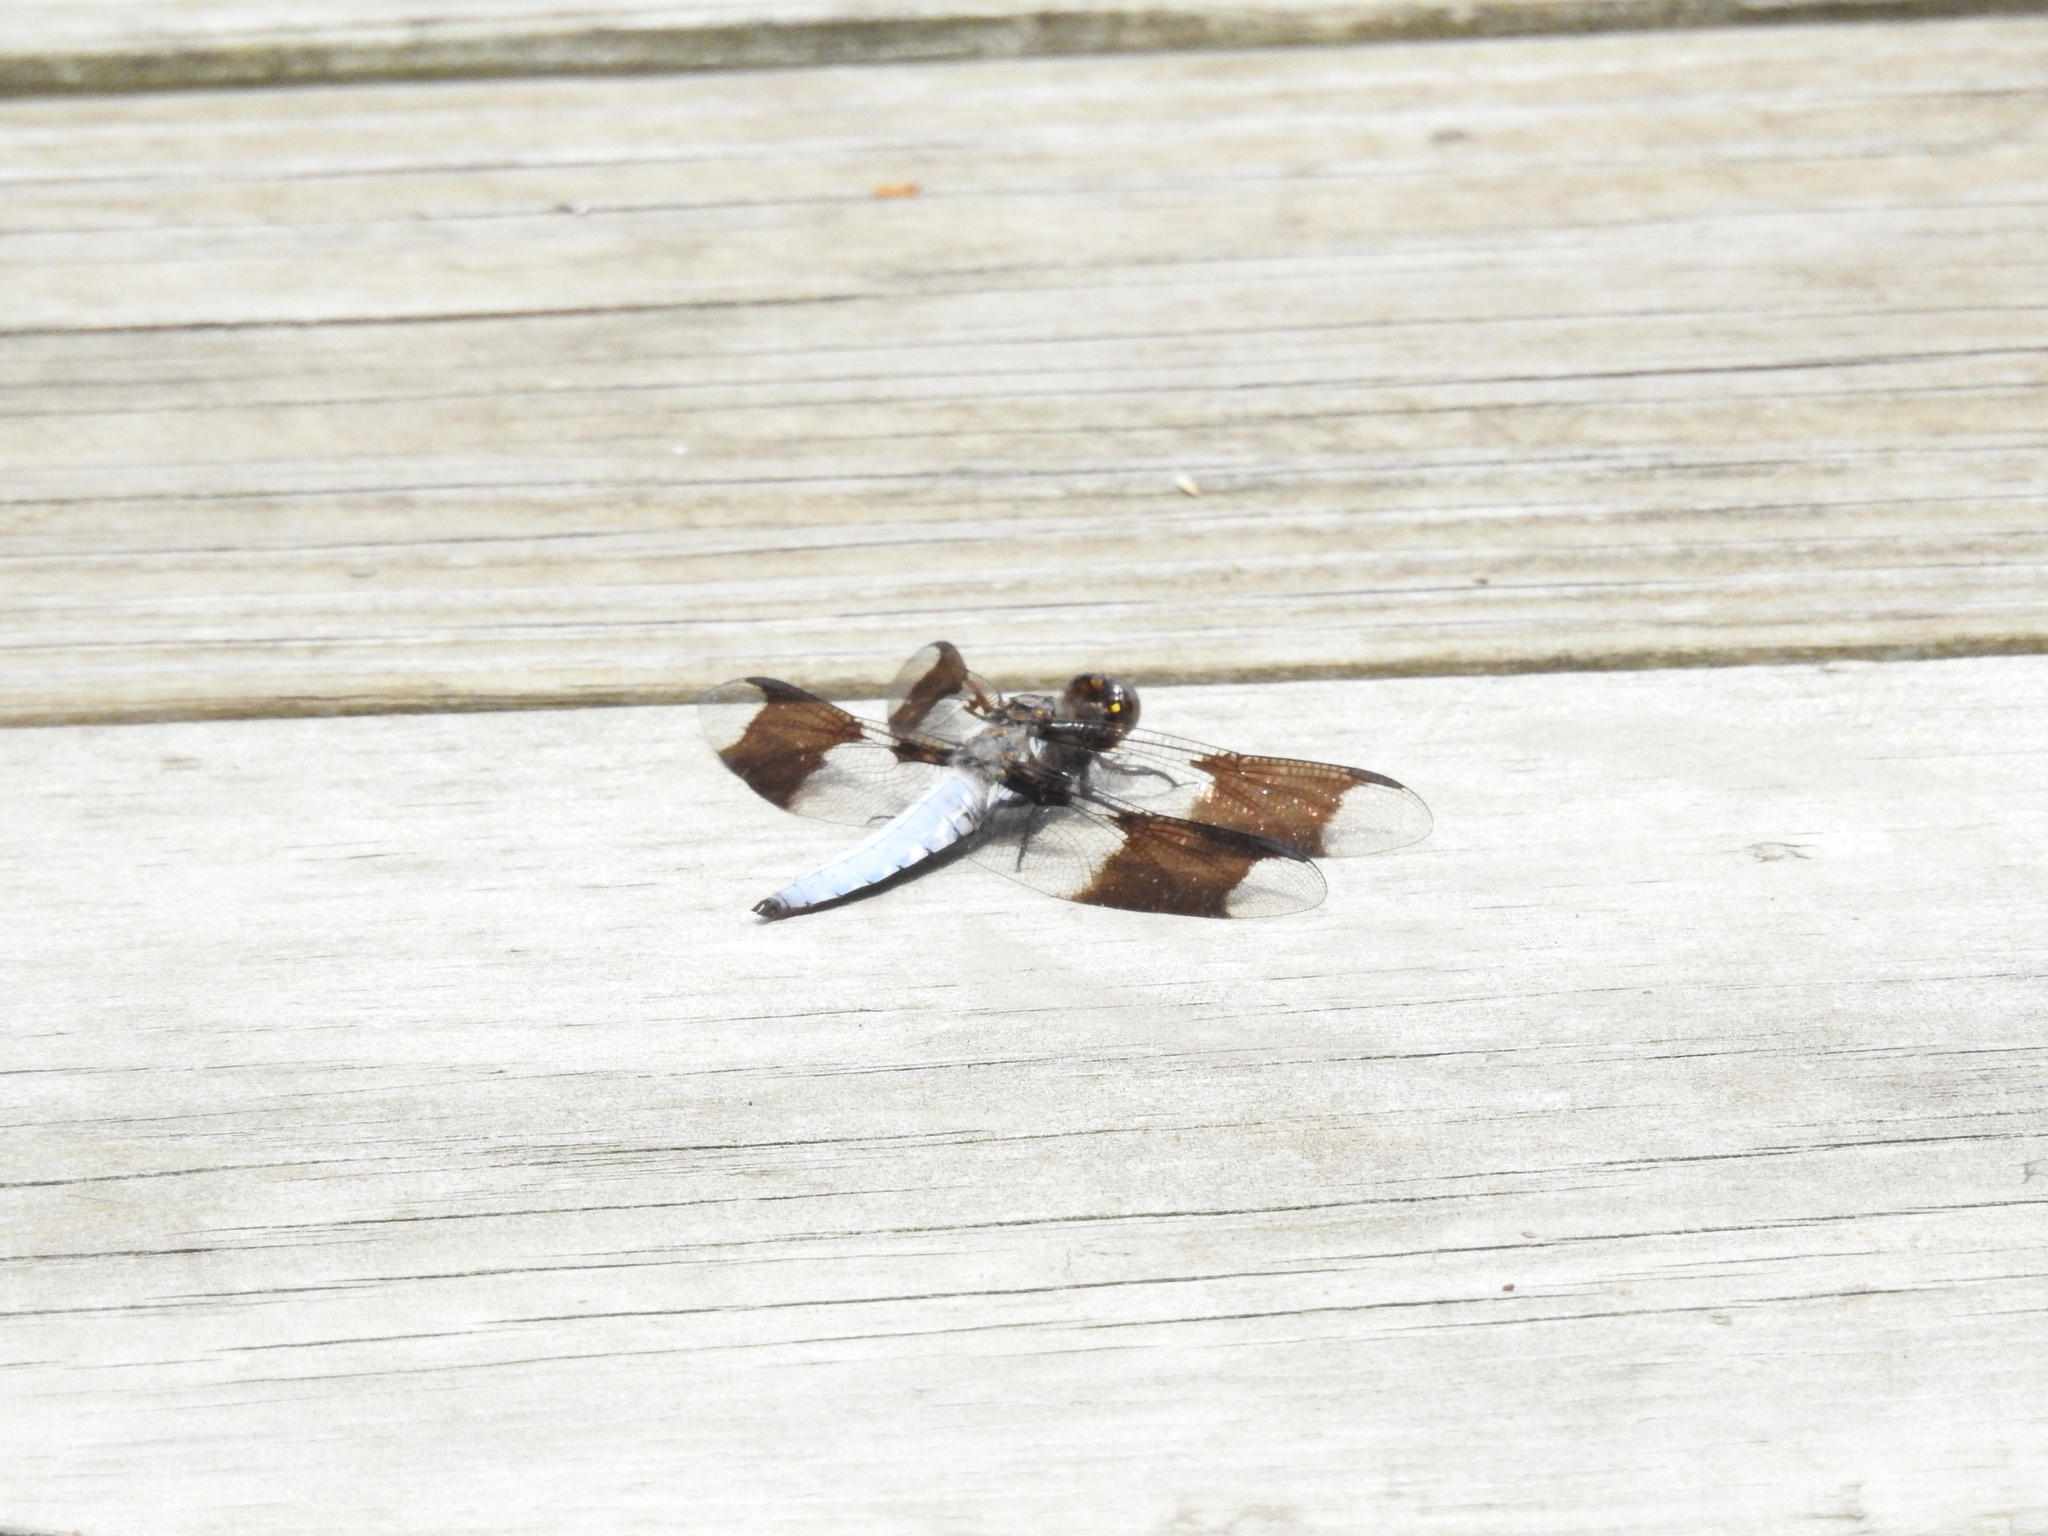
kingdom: Animalia
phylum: Arthropoda
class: Insecta
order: Odonata
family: Libellulidae
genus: Plathemis
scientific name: Plathemis lydia
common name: Common whitetail
